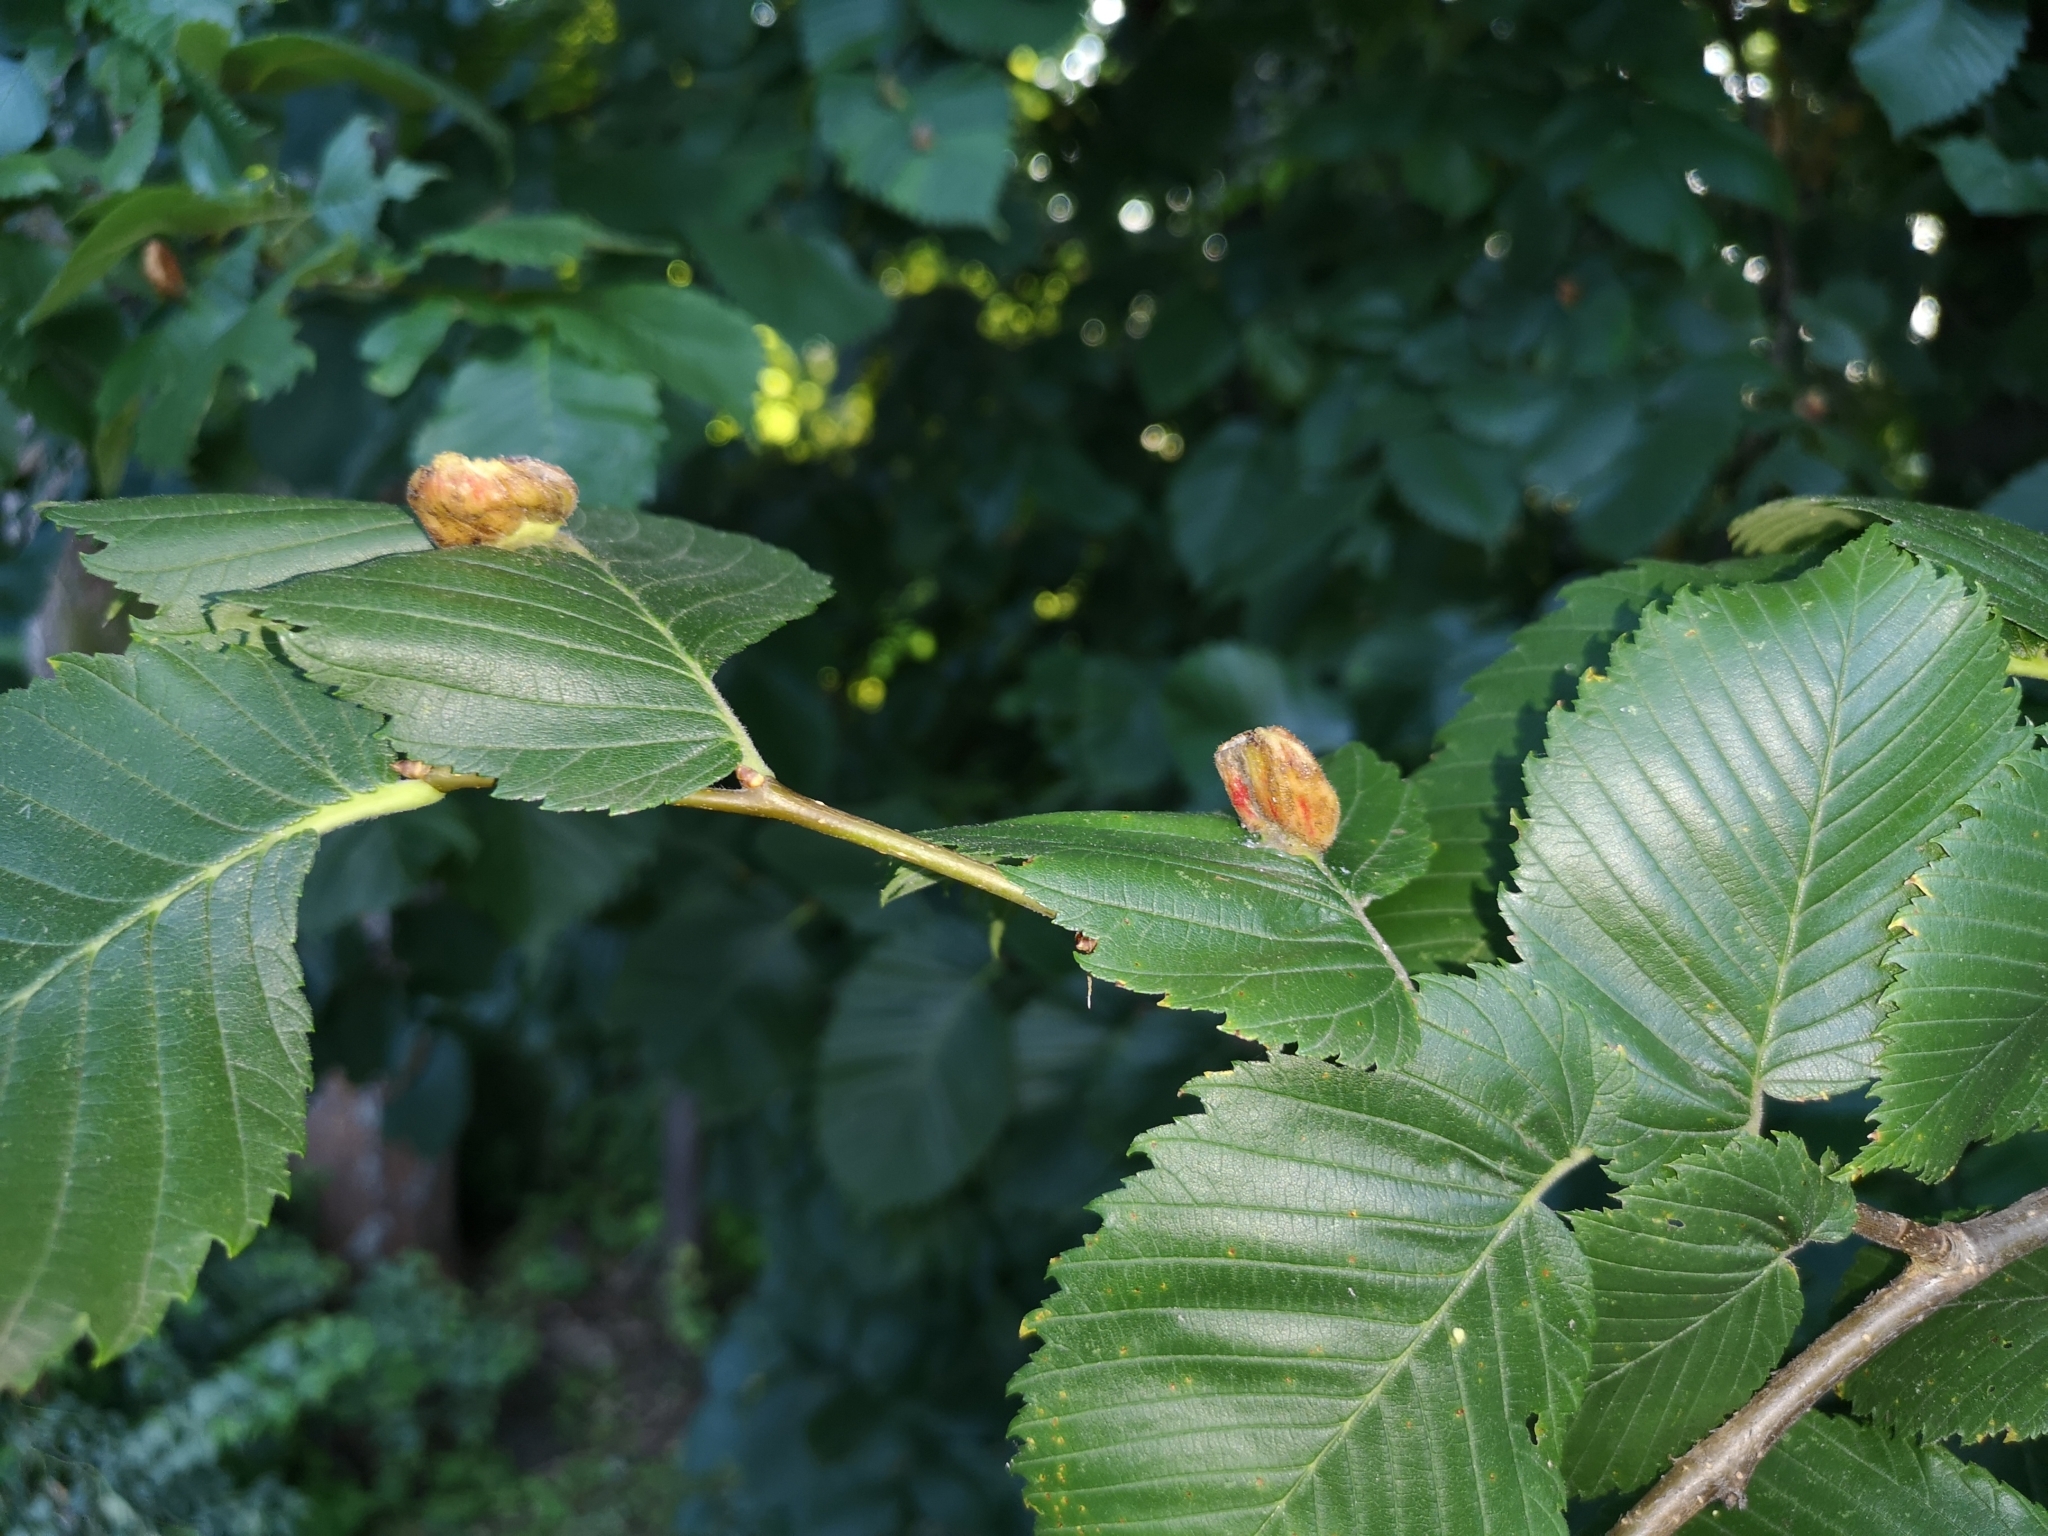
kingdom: Animalia
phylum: Arthropoda
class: Insecta
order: Hemiptera
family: Aphididae
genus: Colopha
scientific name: Colopha compressa
